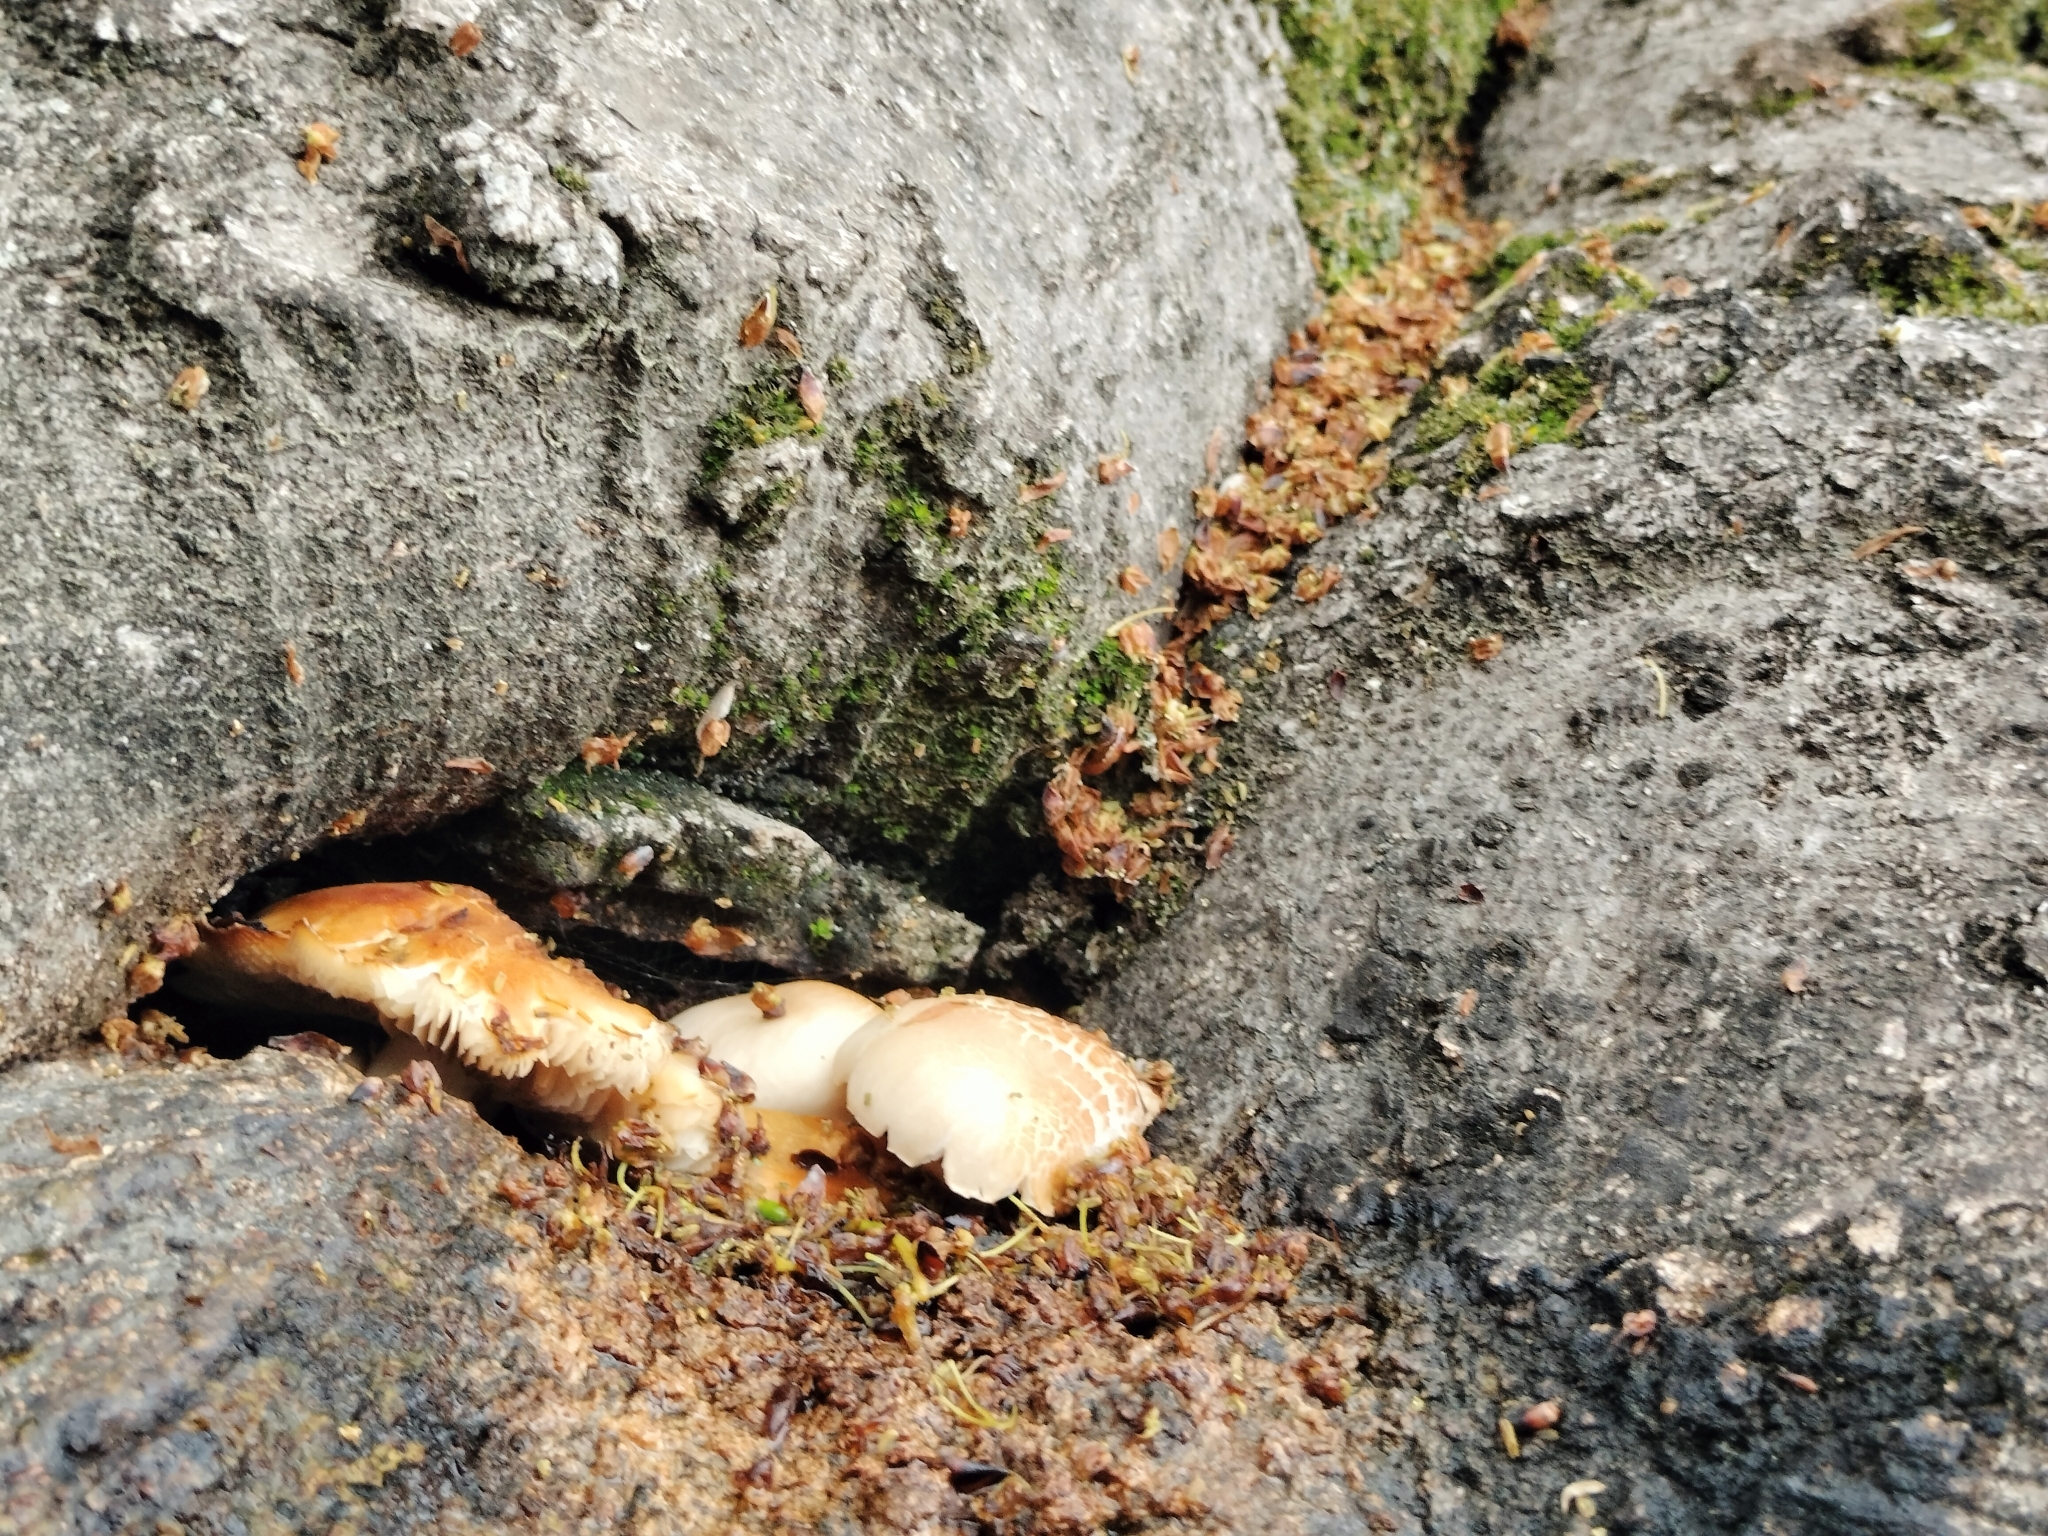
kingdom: Fungi
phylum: Basidiomycota
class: Agaricomycetes
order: Agaricales
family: Tubariaceae
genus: Cyclocybe
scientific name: Cyclocybe cylindracea
